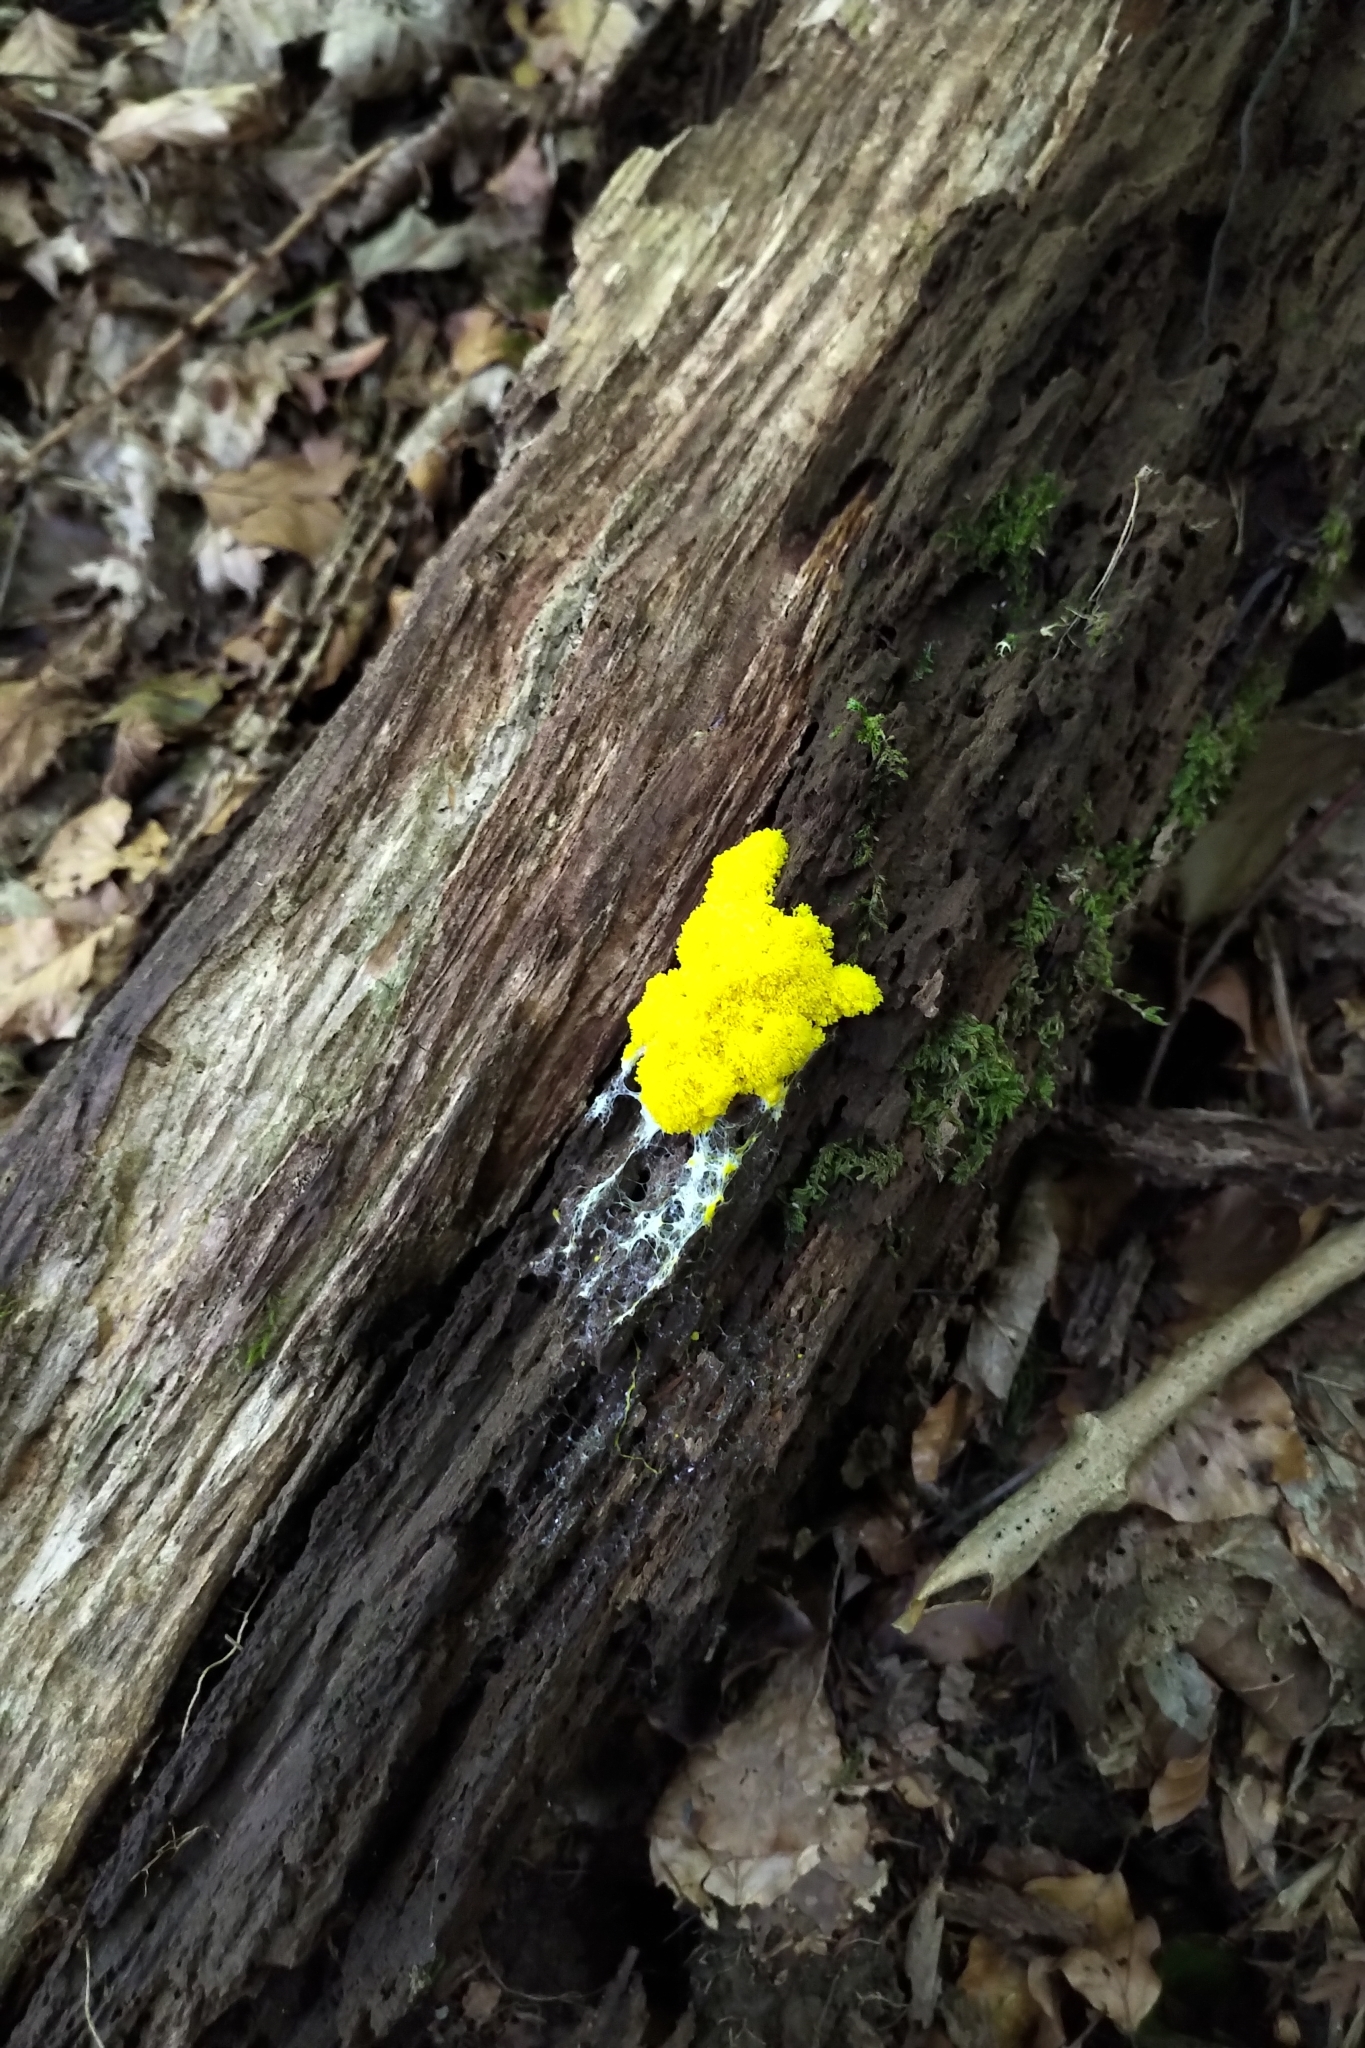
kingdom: Protozoa
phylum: Mycetozoa
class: Myxomycetes
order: Physarales
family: Physaraceae
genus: Fuligo
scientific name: Fuligo septica
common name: Dog vomit slime mold
